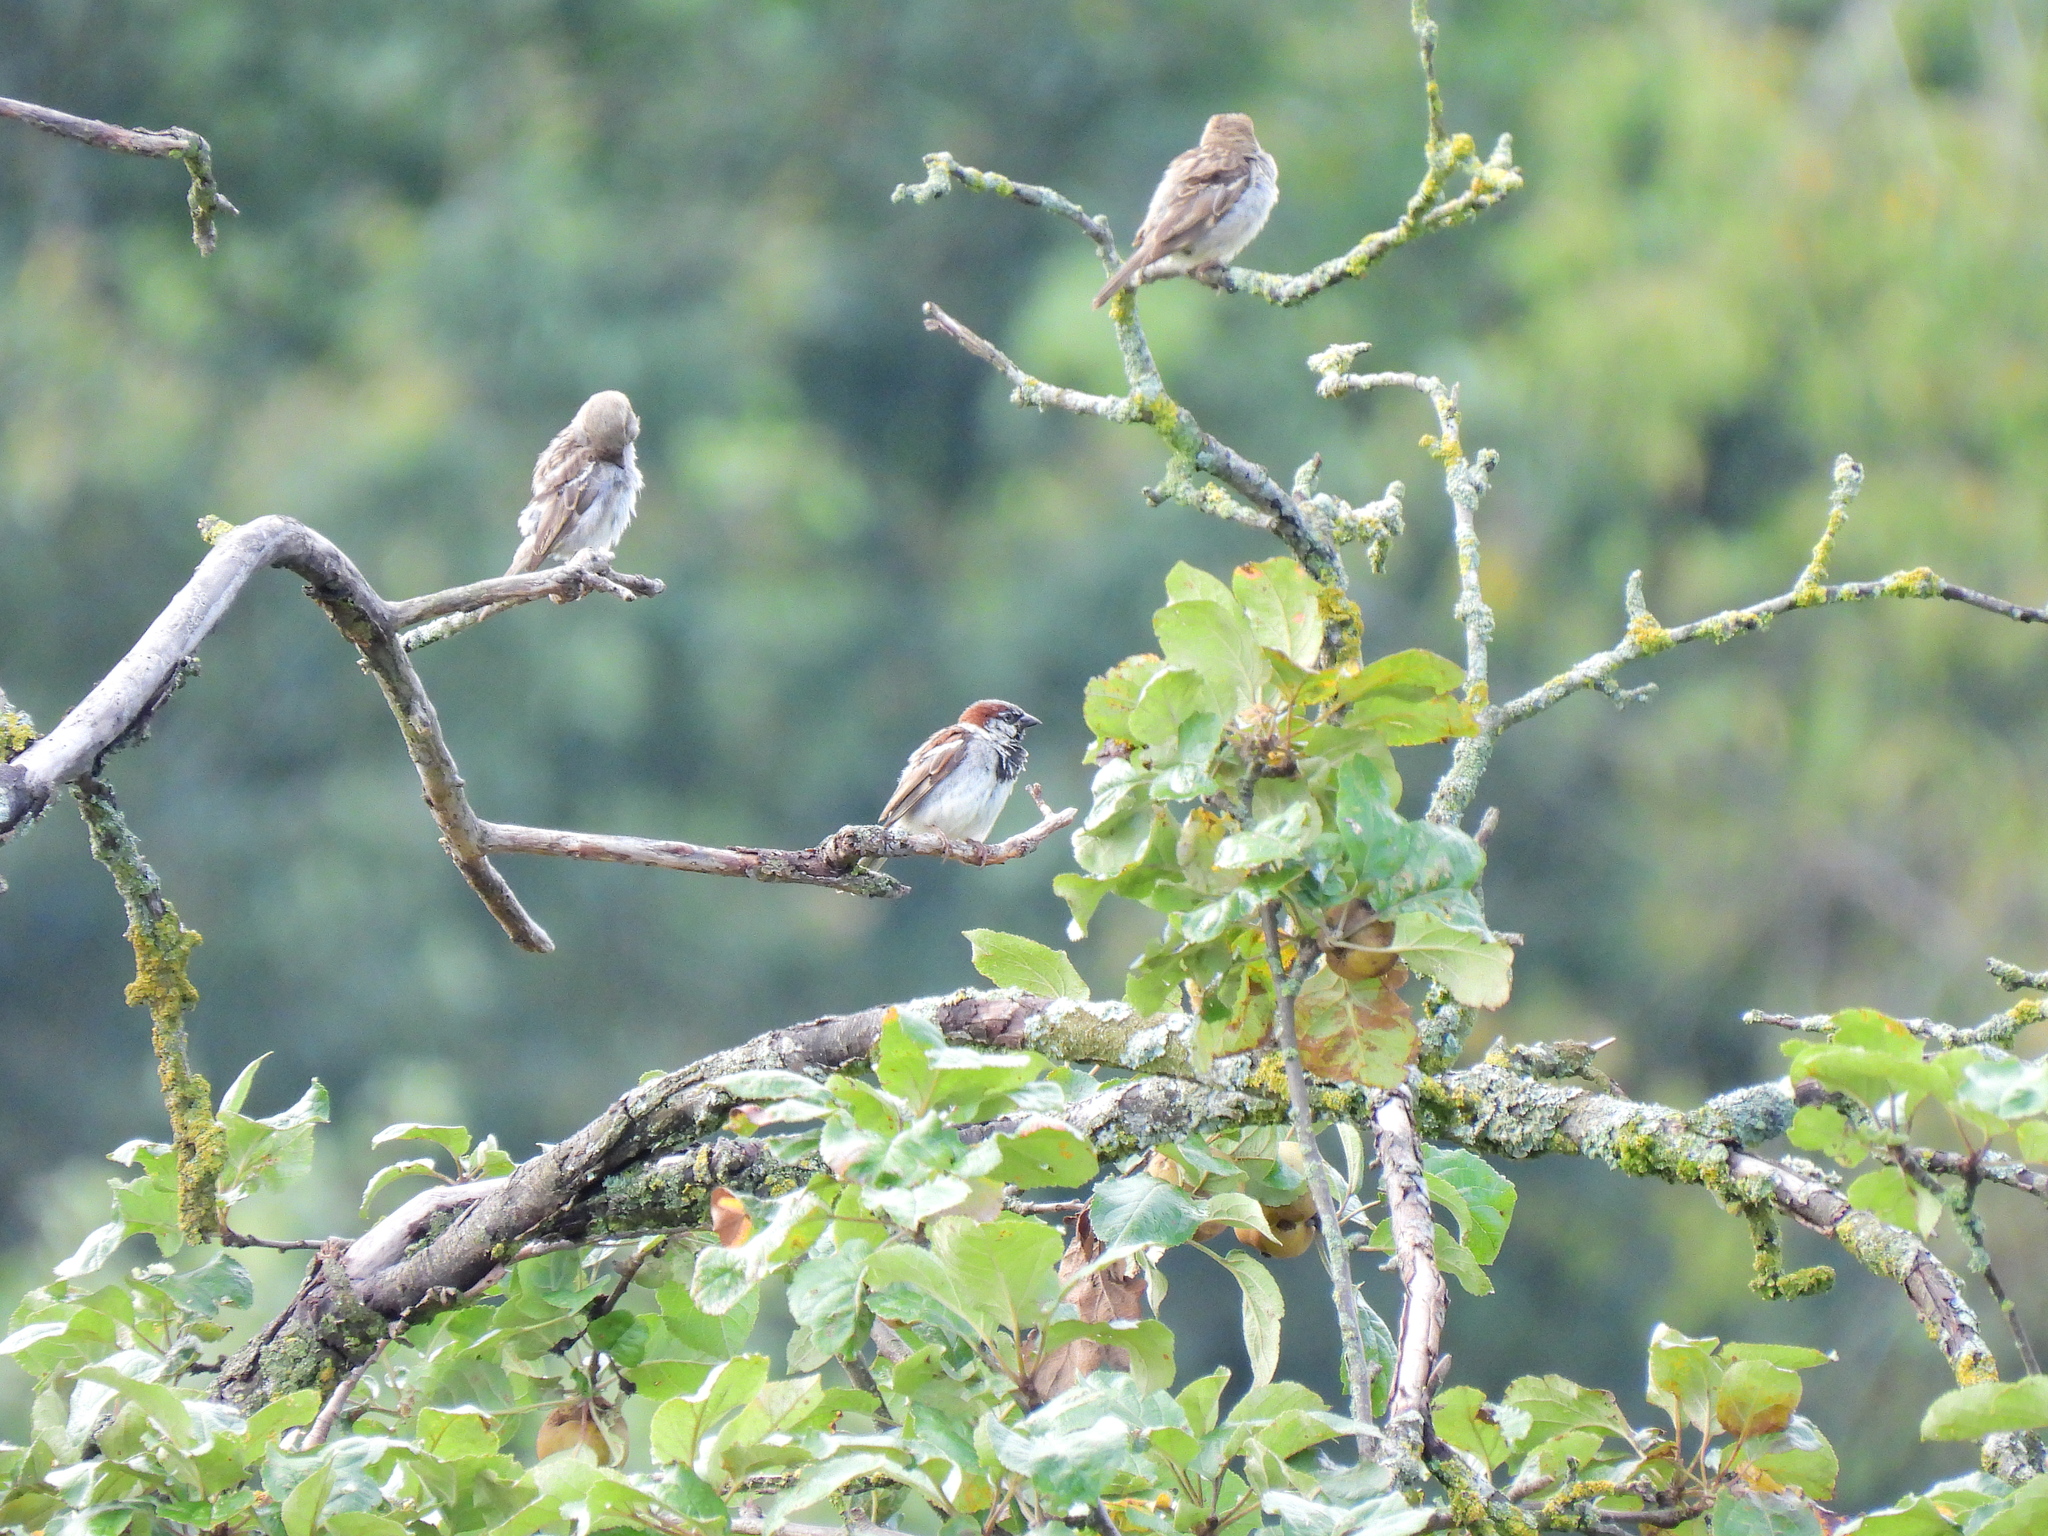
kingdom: Animalia
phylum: Chordata
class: Aves
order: Passeriformes
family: Passeridae
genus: Passer
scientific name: Passer domesticus
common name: House sparrow
